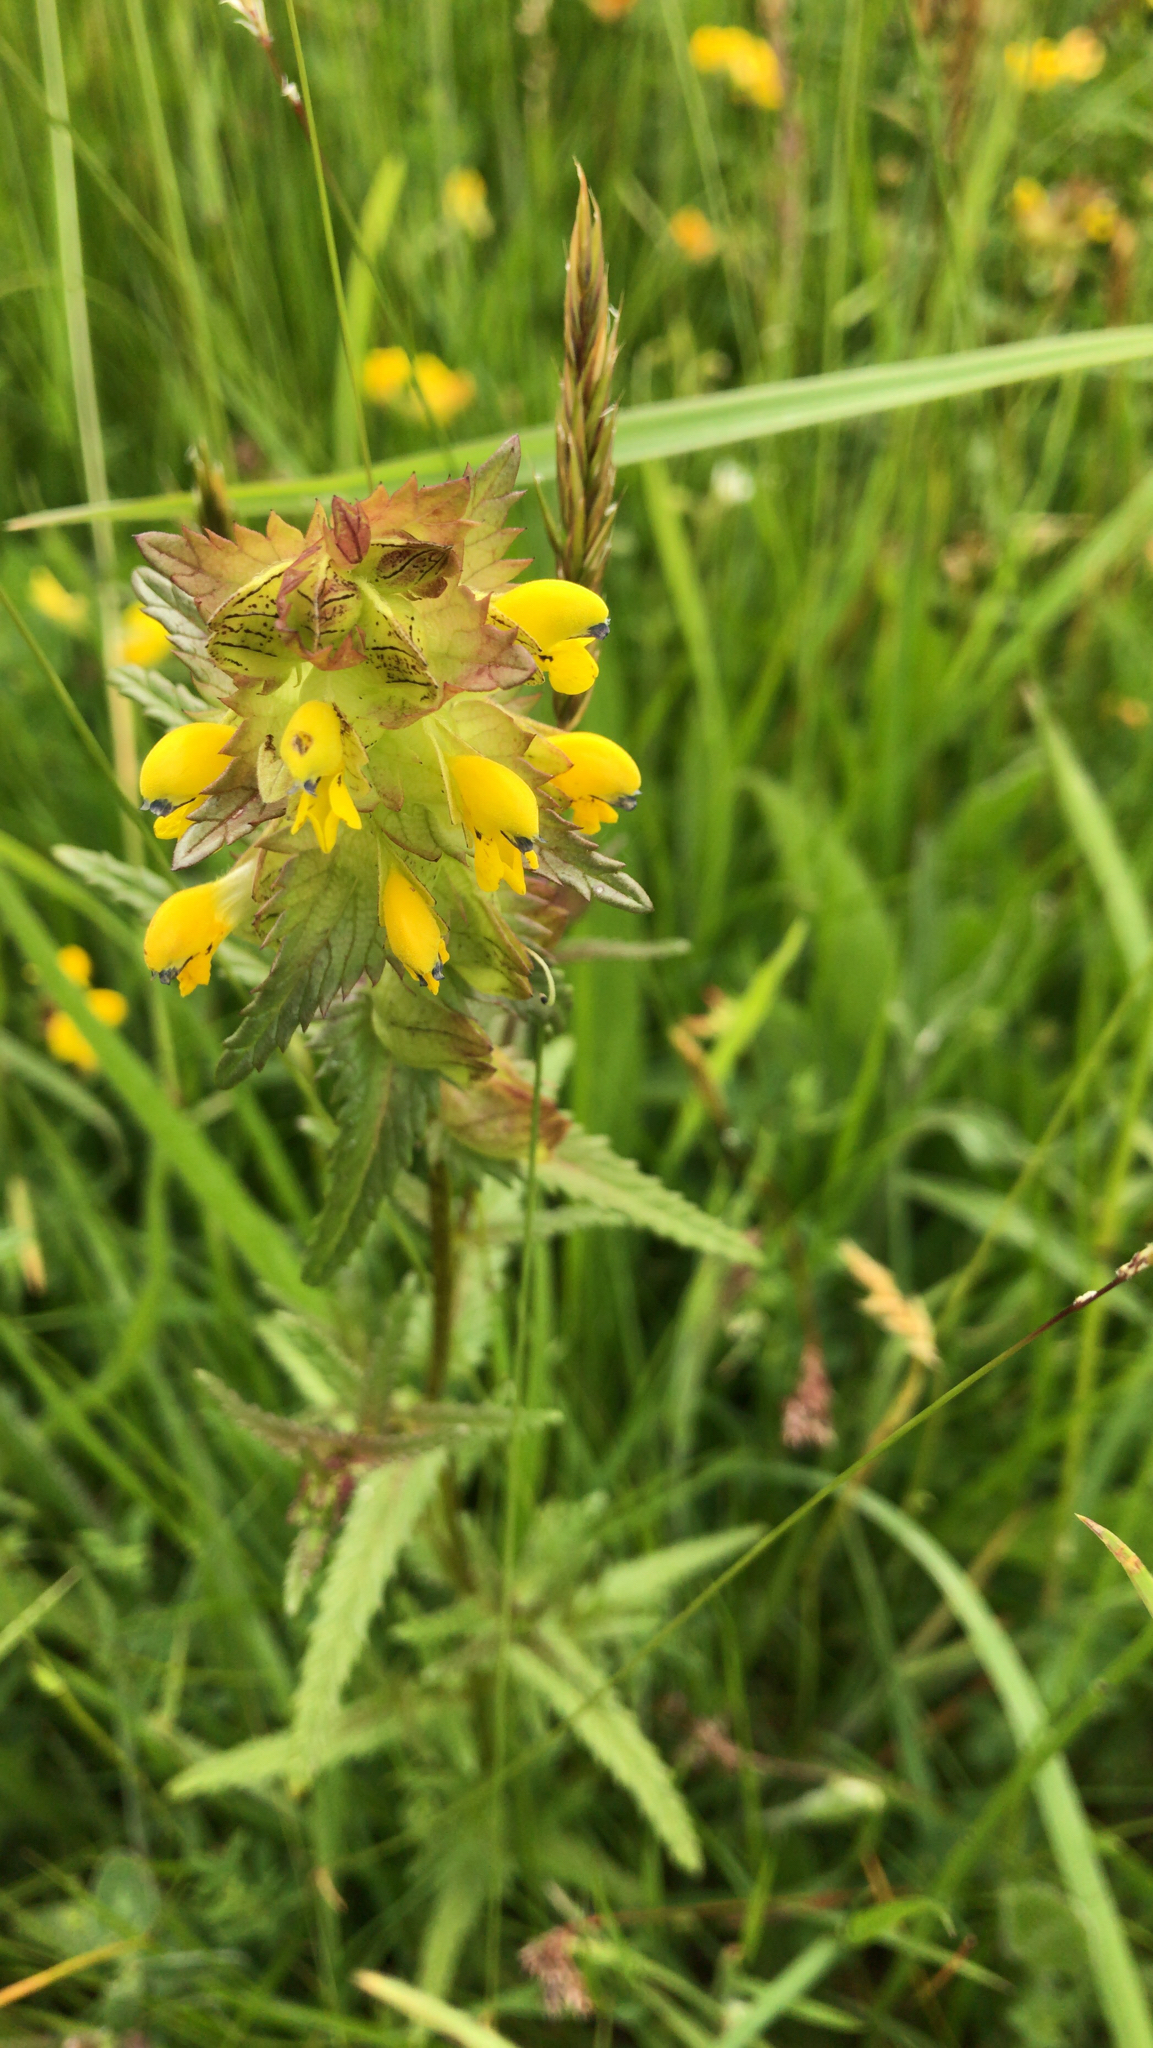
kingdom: Plantae
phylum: Tracheophyta
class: Magnoliopsida
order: Lamiales
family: Orobanchaceae
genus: Rhinanthus
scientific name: Rhinanthus minor
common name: Yellow-rattle
